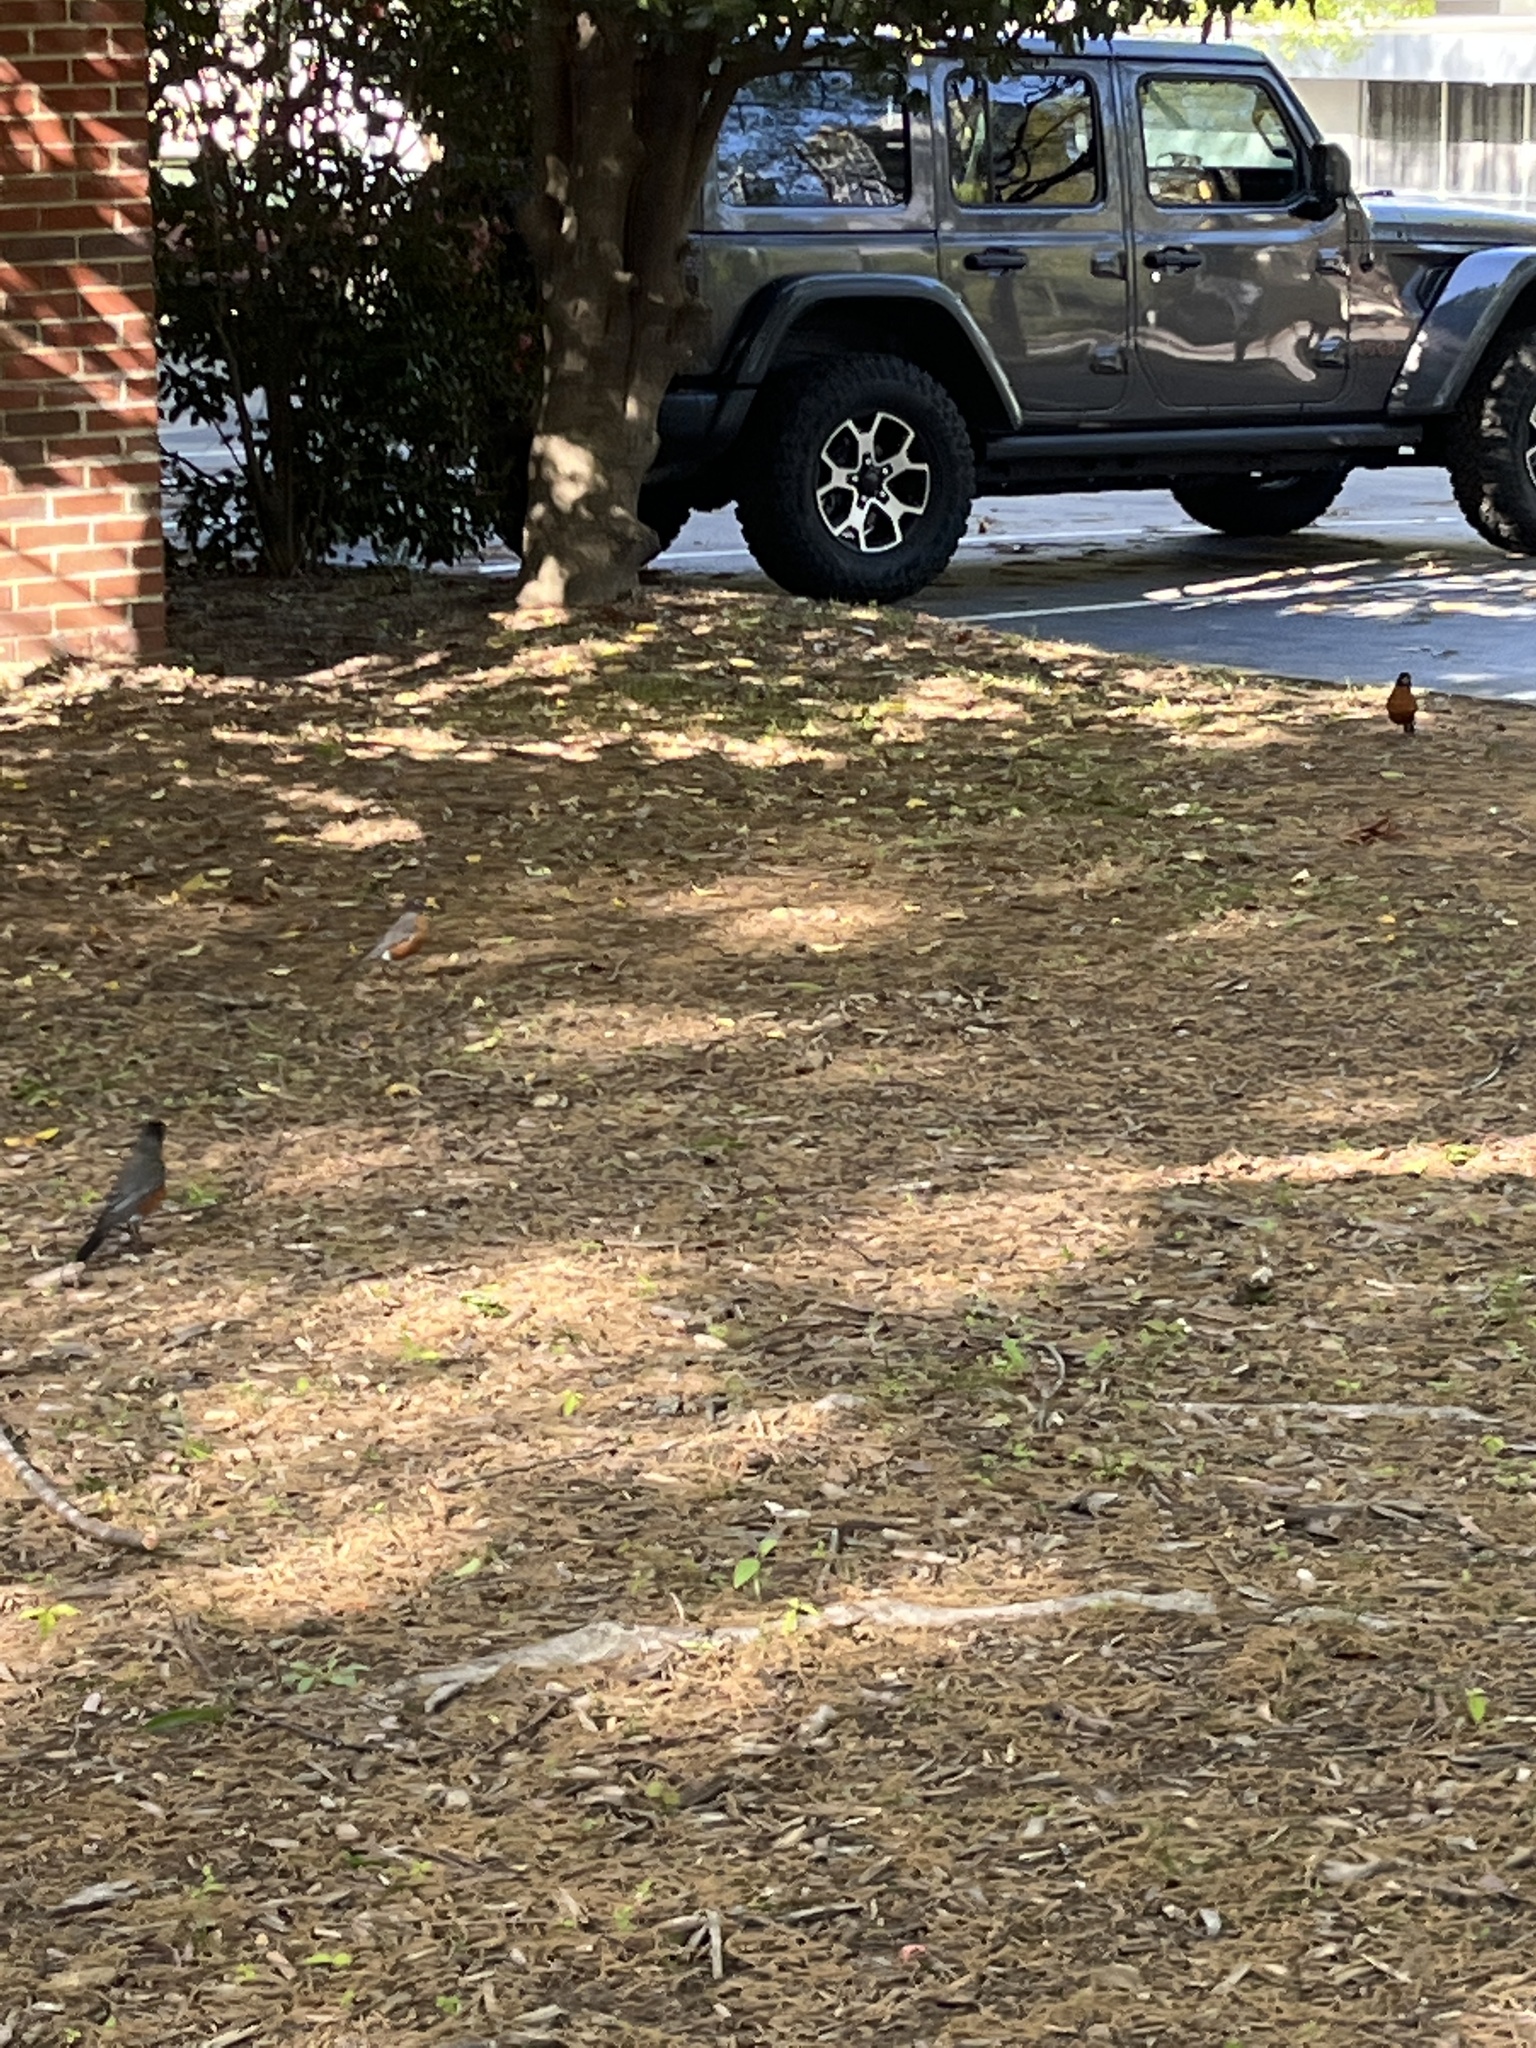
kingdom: Animalia
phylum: Chordata
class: Aves
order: Passeriformes
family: Turdidae
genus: Turdus
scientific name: Turdus migratorius
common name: American robin
